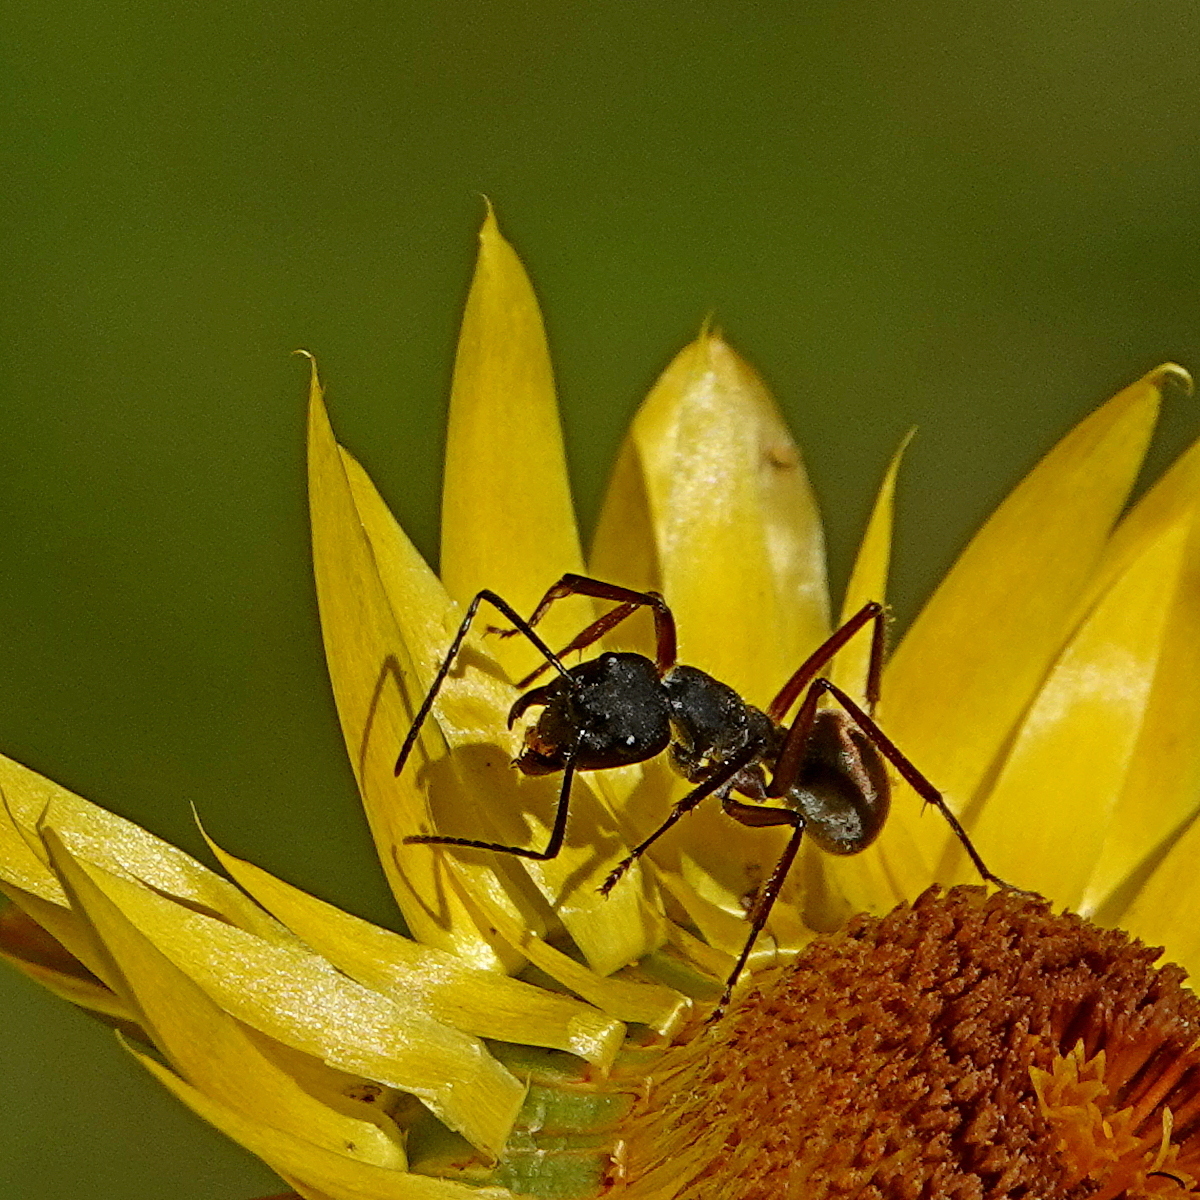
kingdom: Animalia
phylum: Arthropoda
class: Insecta
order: Hymenoptera
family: Formicidae
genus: Camponotus
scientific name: Camponotus suffusus
